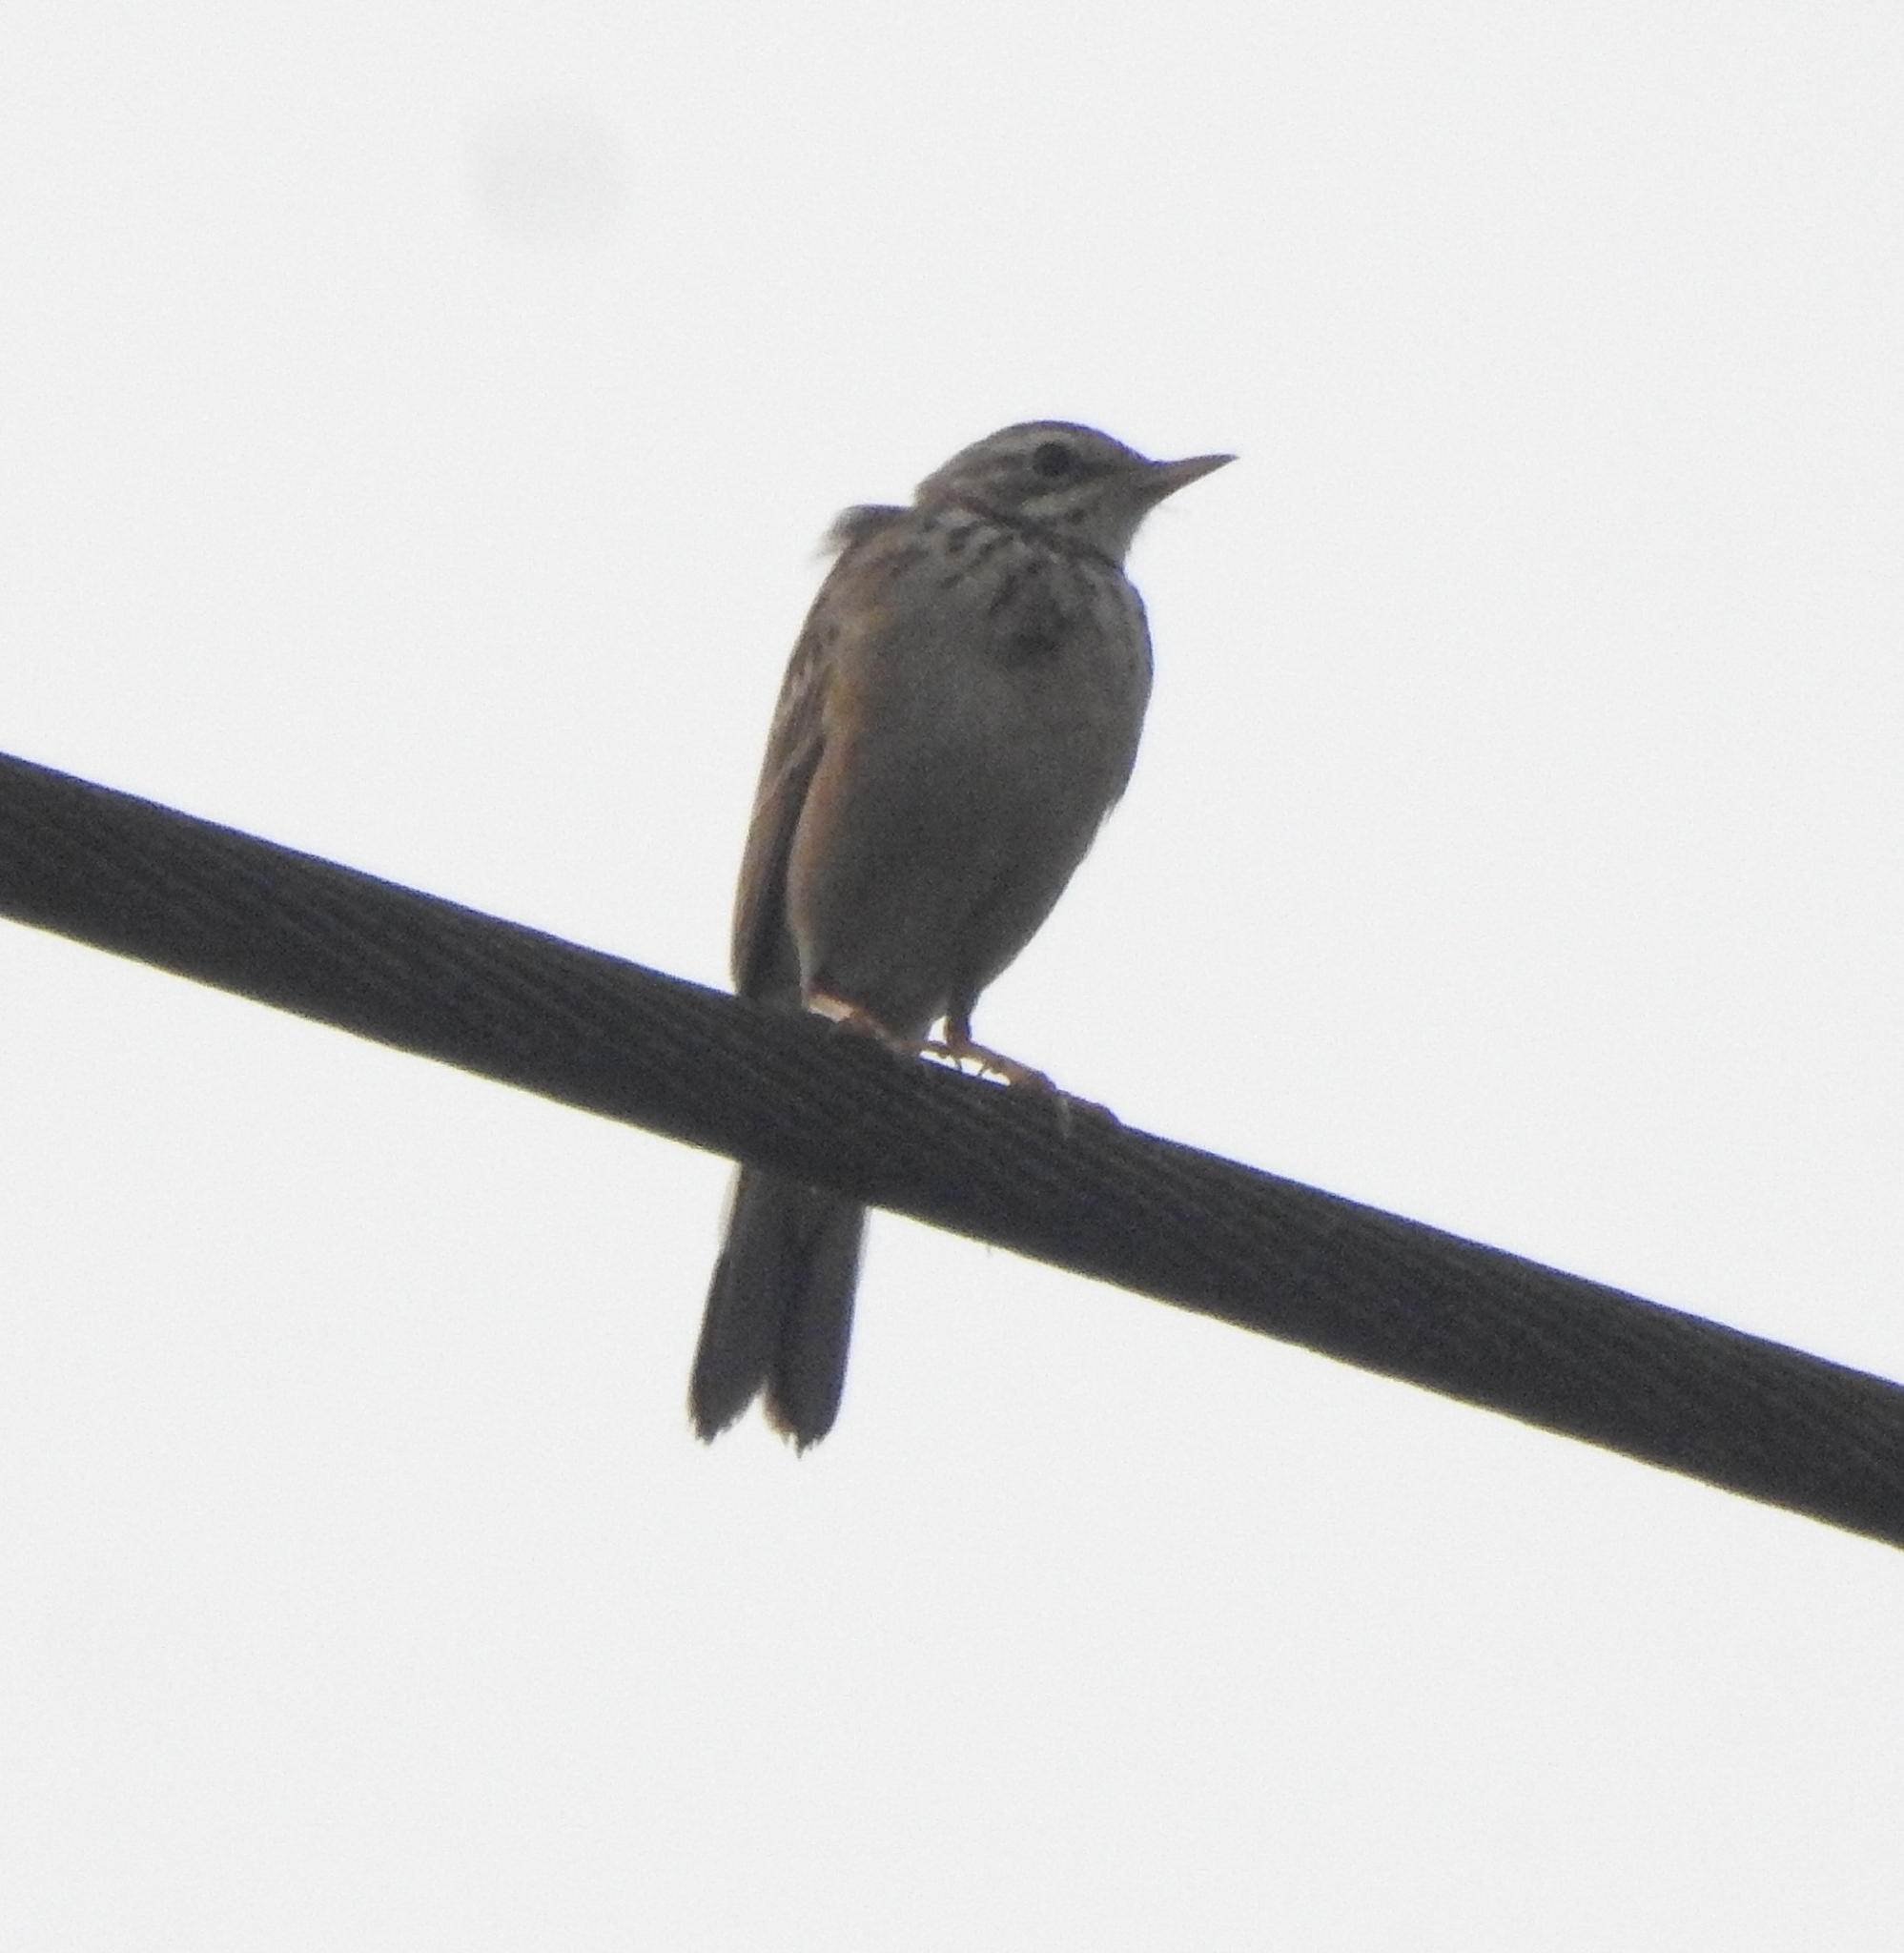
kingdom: Animalia
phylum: Chordata
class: Aves
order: Passeriformes
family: Motacillidae
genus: Anthus
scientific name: Anthus rufulus
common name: Paddyfield pipit
